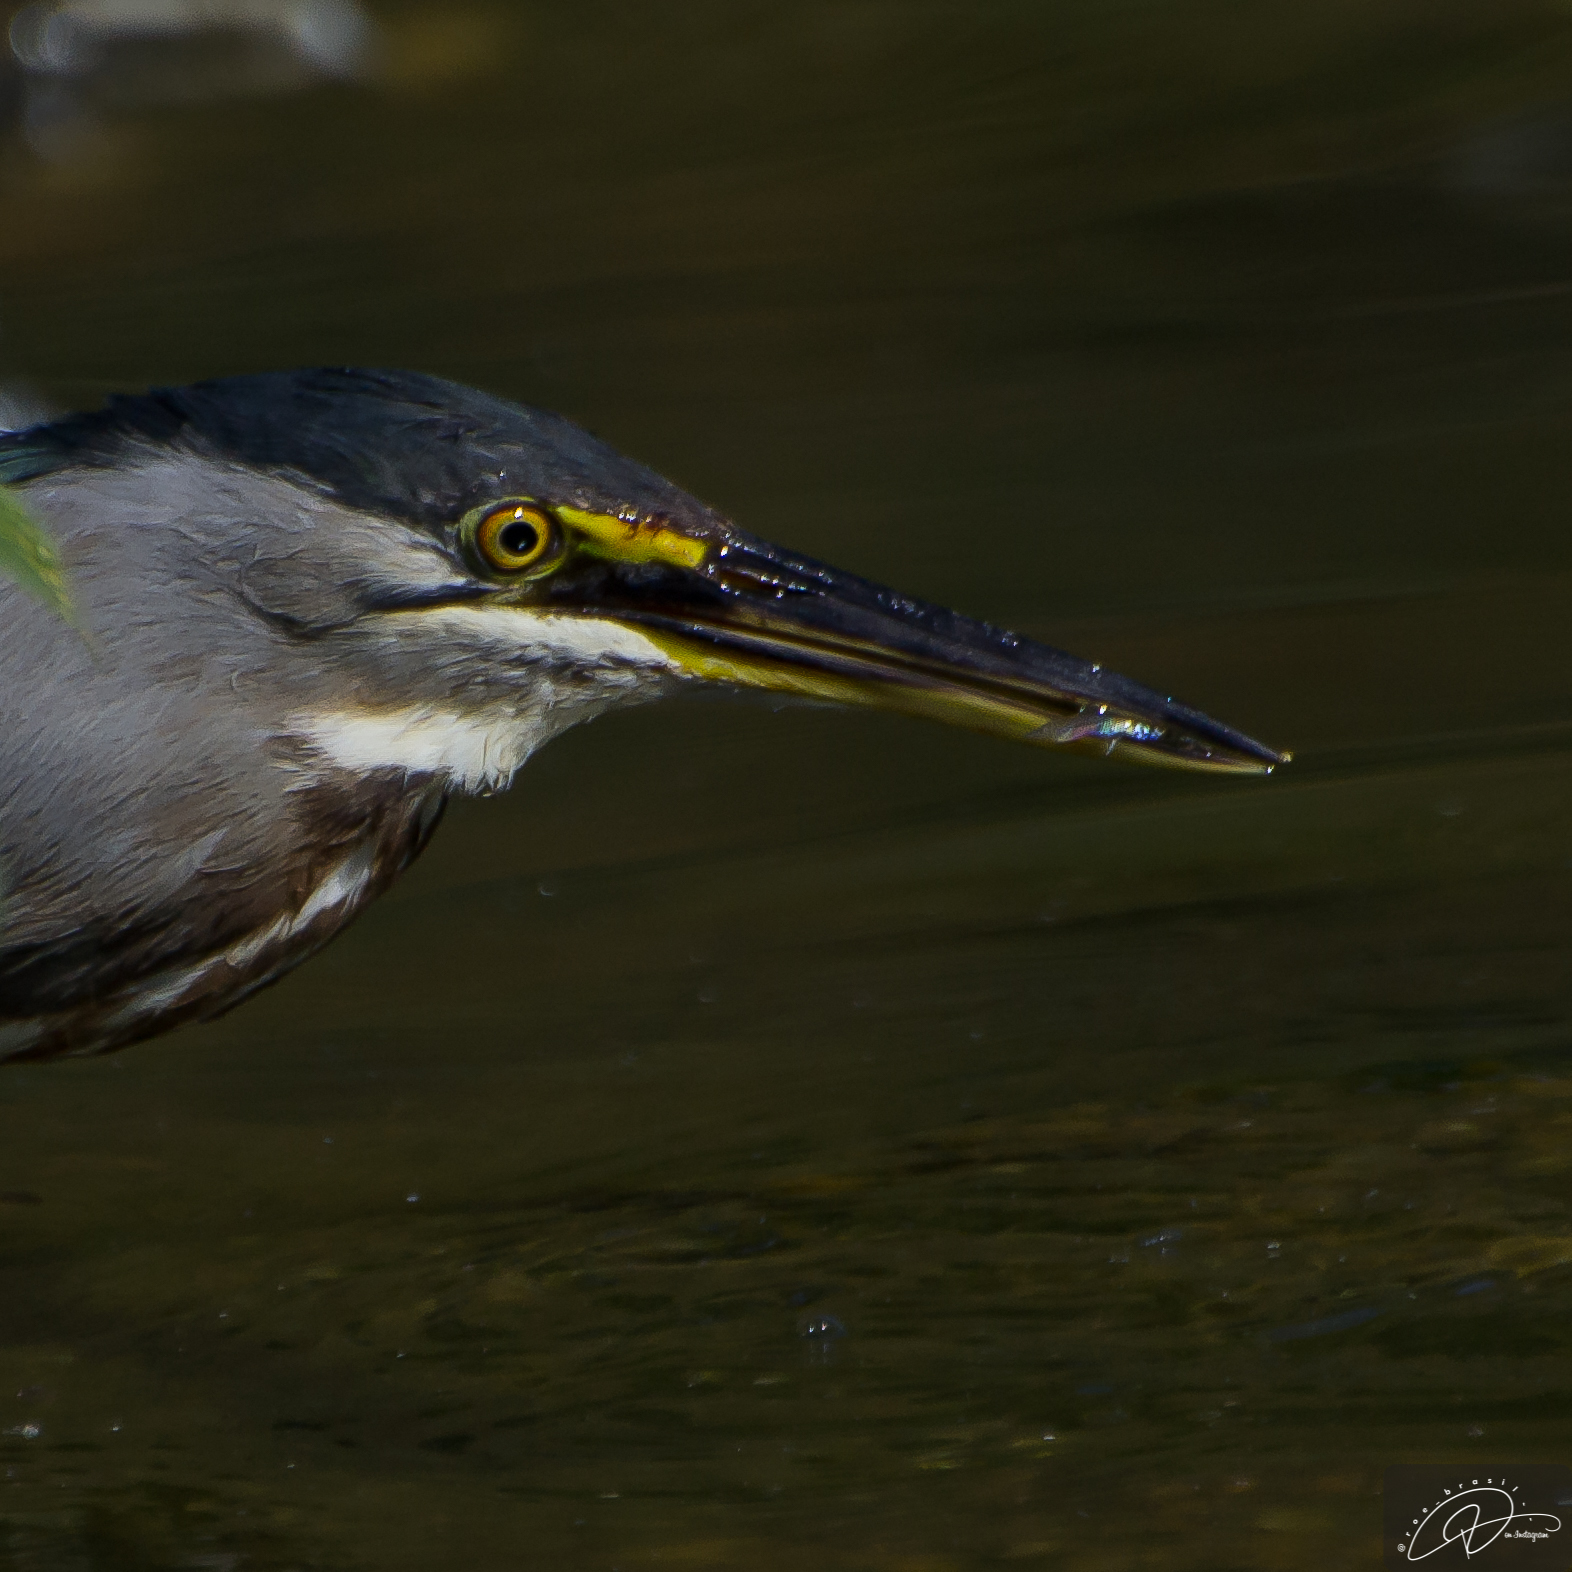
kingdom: Animalia
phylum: Chordata
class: Aves
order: Pelecaniformes
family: Ardeidae
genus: Butorides
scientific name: Butorides striata
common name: Striated heron
